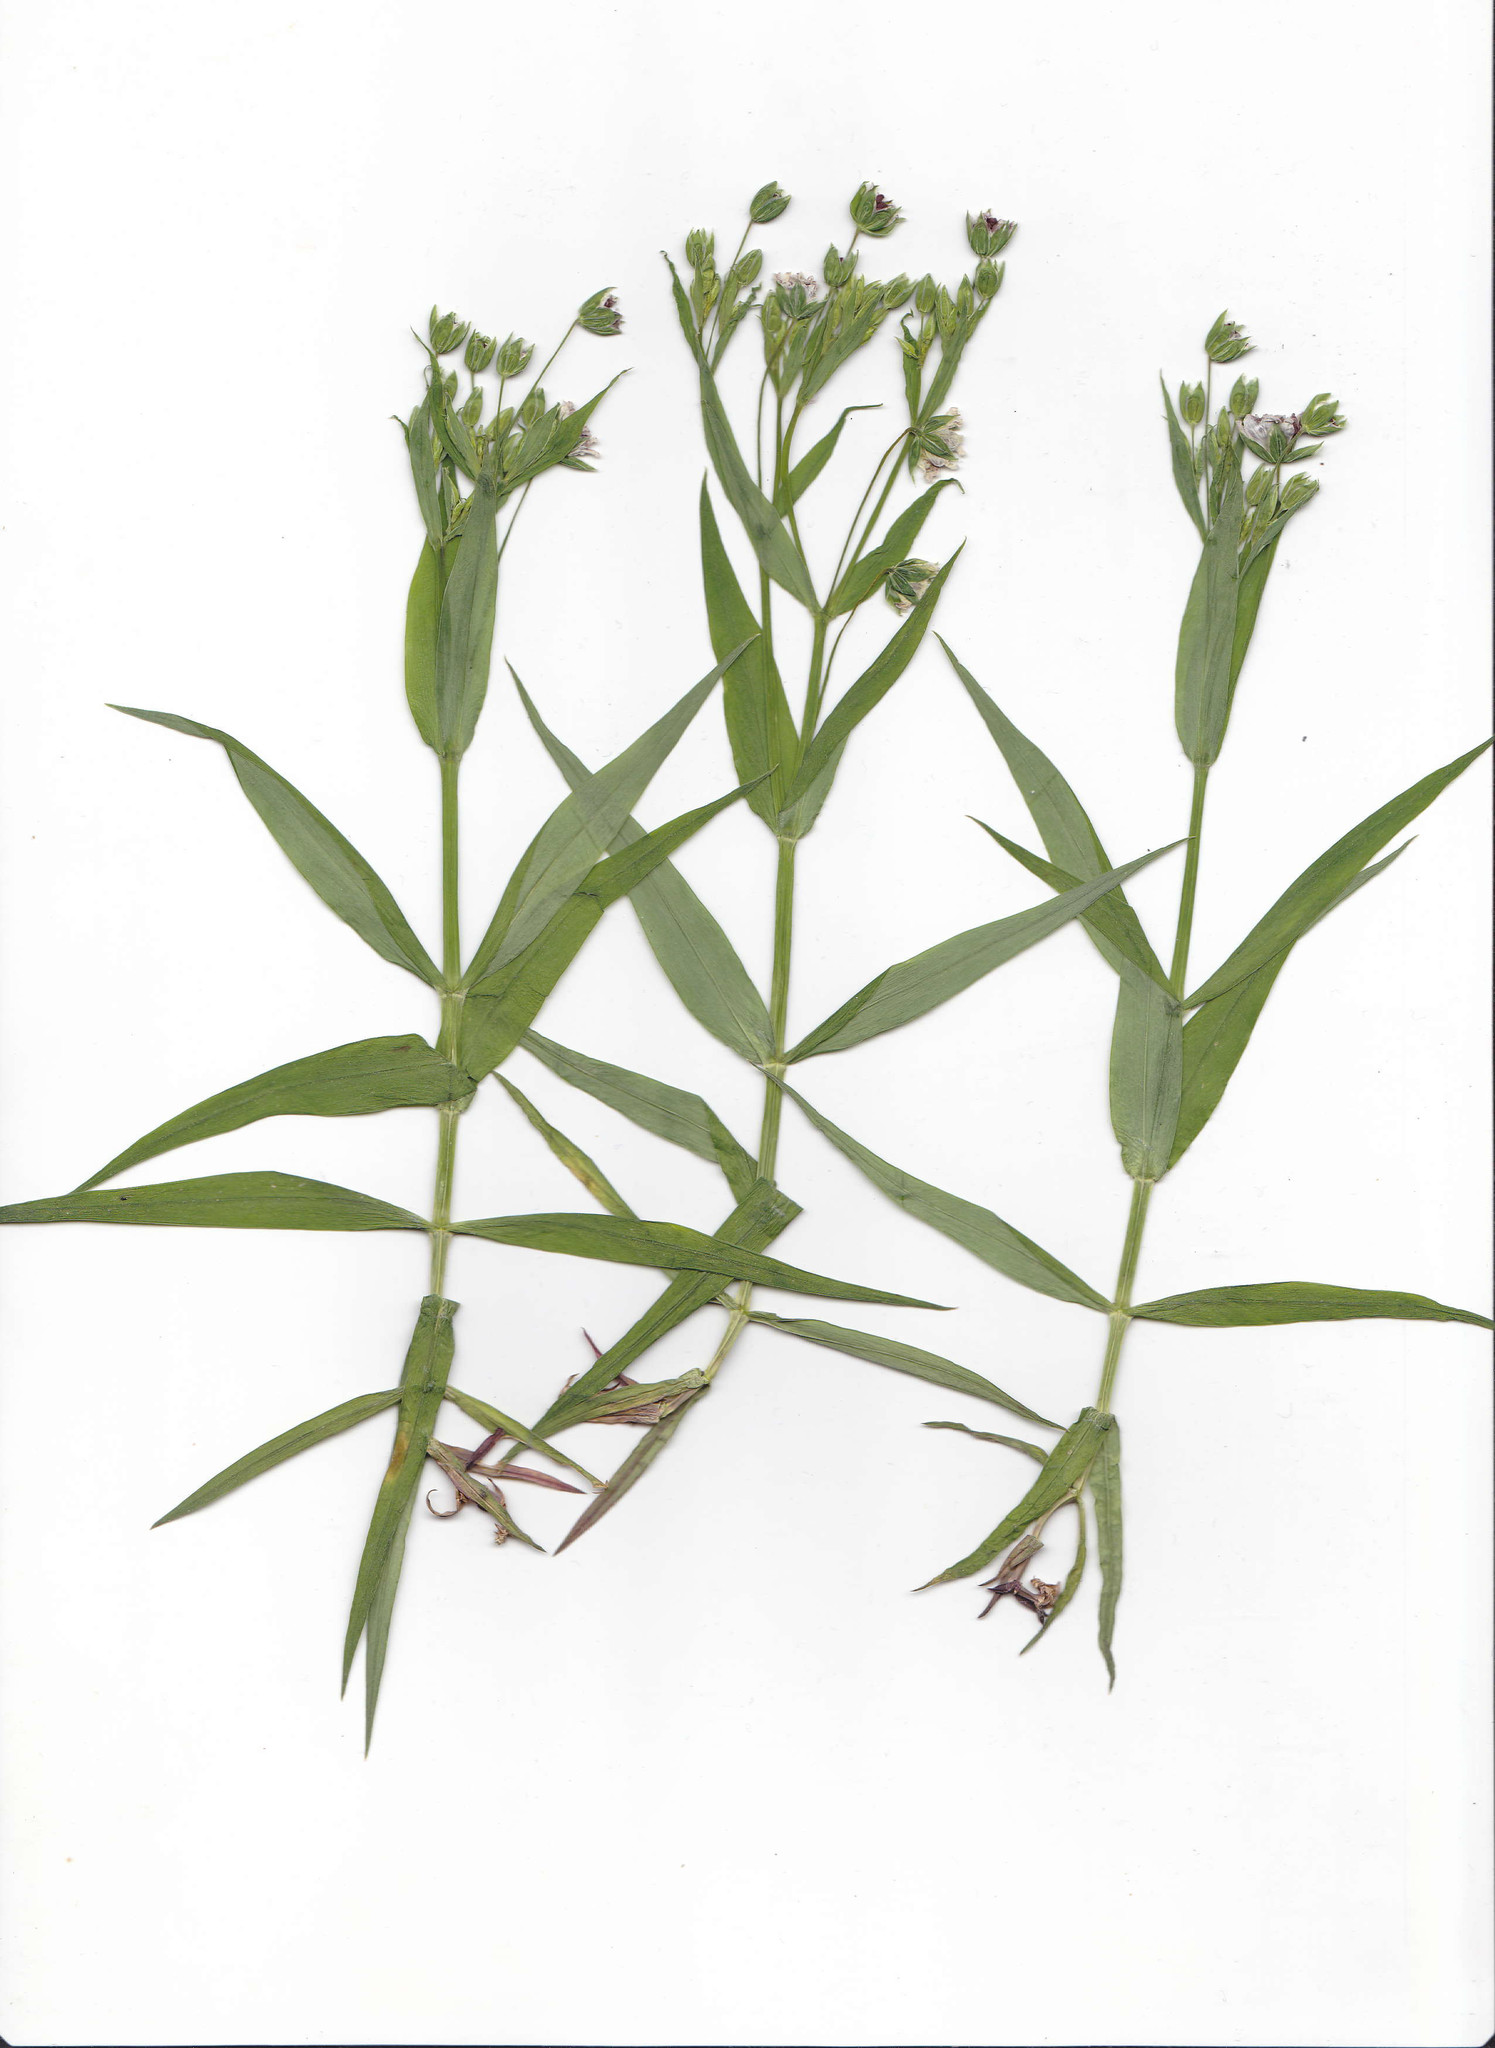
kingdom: Fungi
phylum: Basidiomycota
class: Microbotryomycetes
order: Microbotryales
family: Microbotryaceae
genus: Microbotryum
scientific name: Microbotryum stellariae
